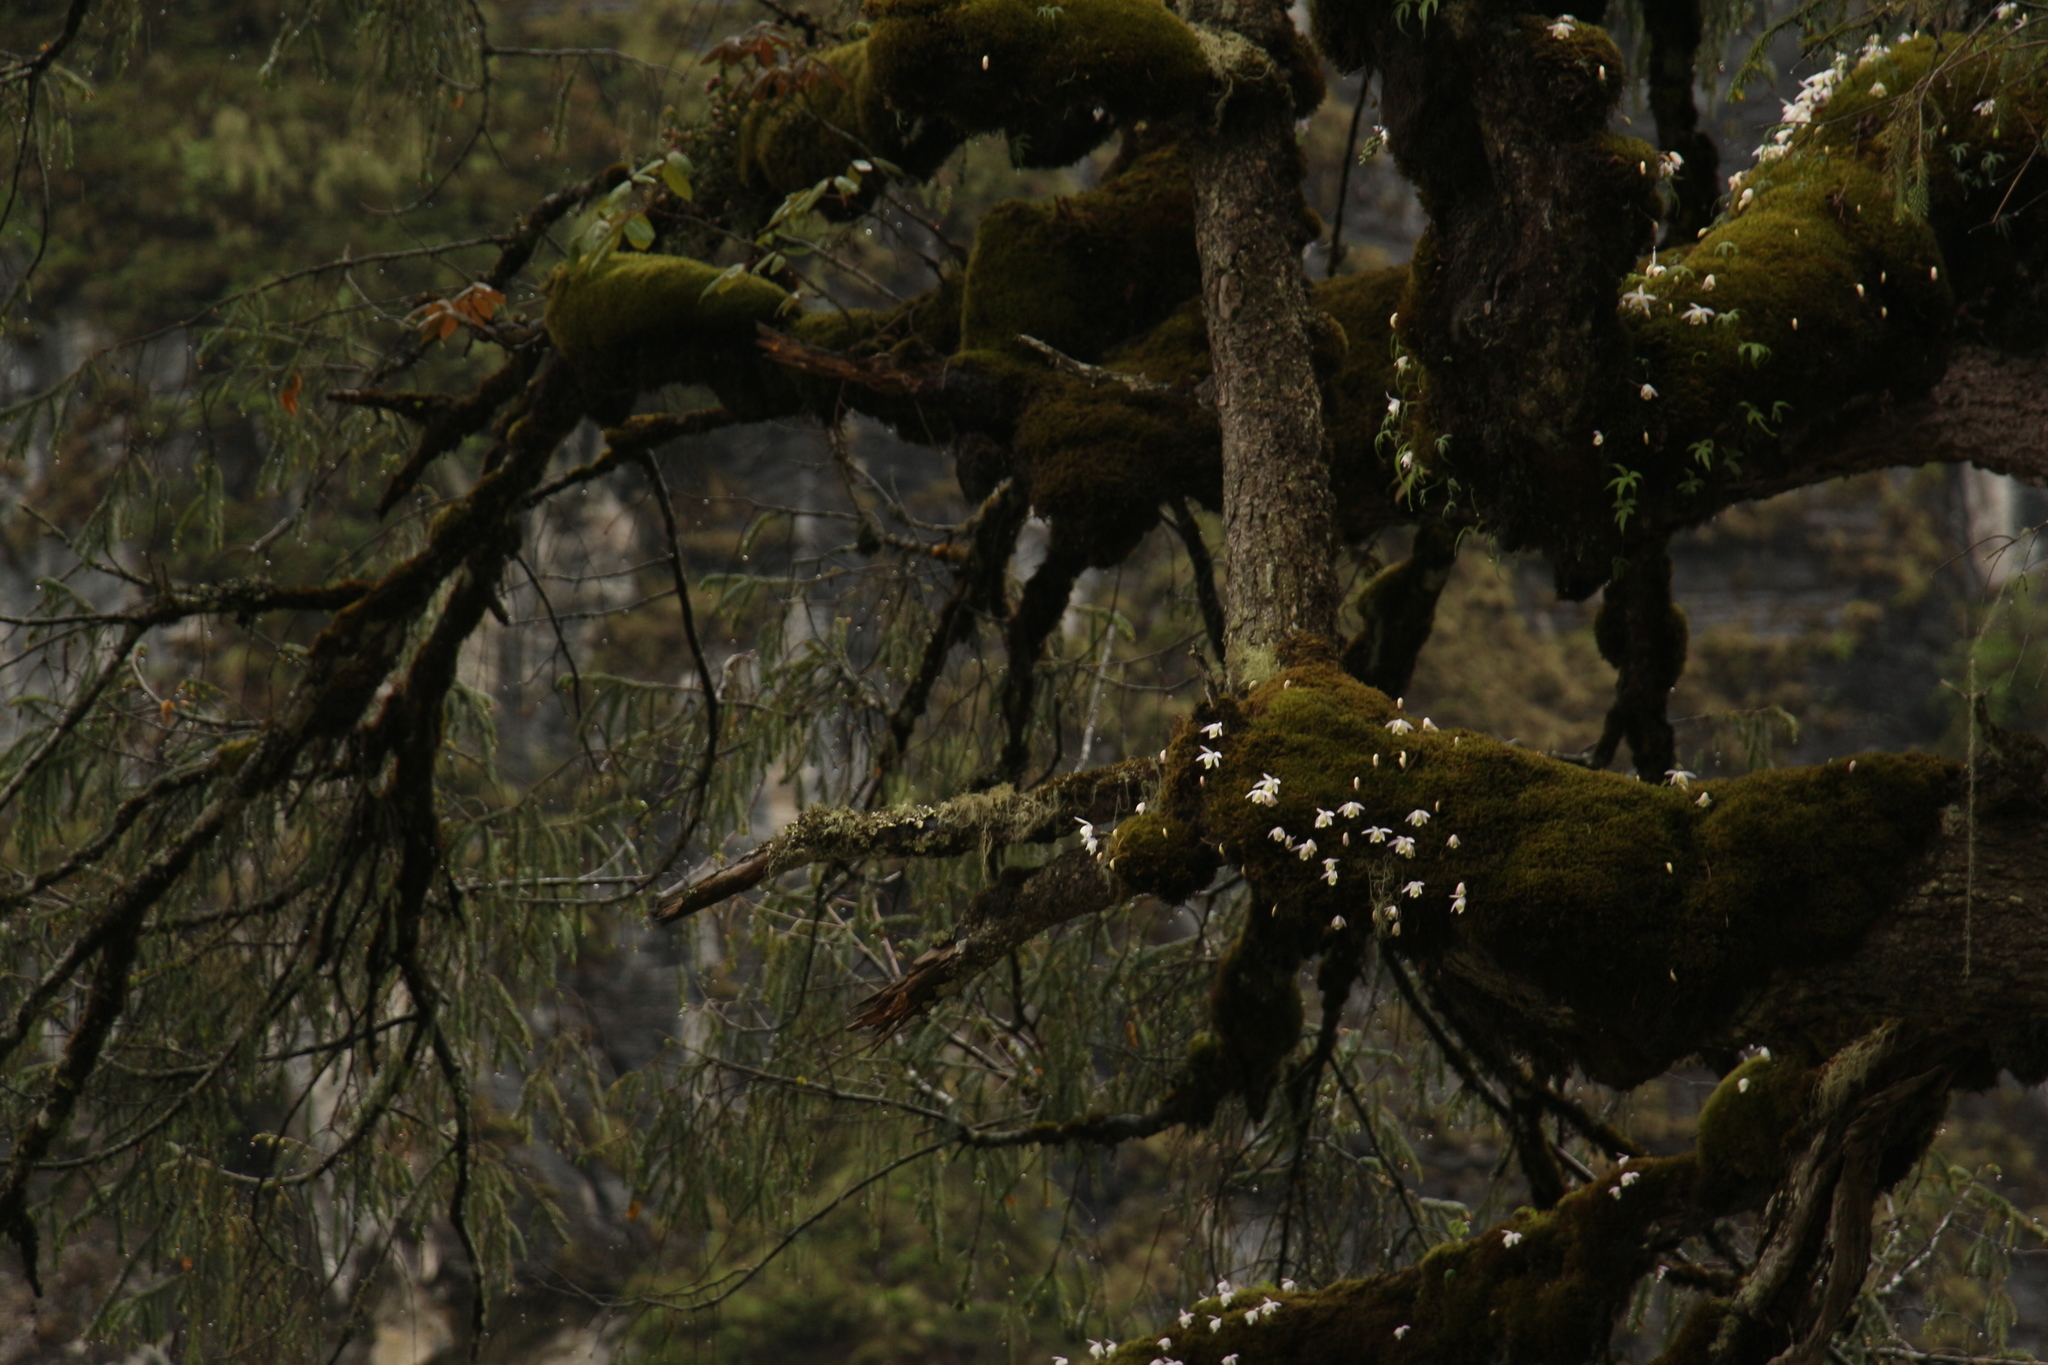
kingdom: Plantae
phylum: Tracheophyta
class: Liliopsida
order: Asparagales
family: Orchidaceae
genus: Pleione
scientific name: Pleione hookeriana
